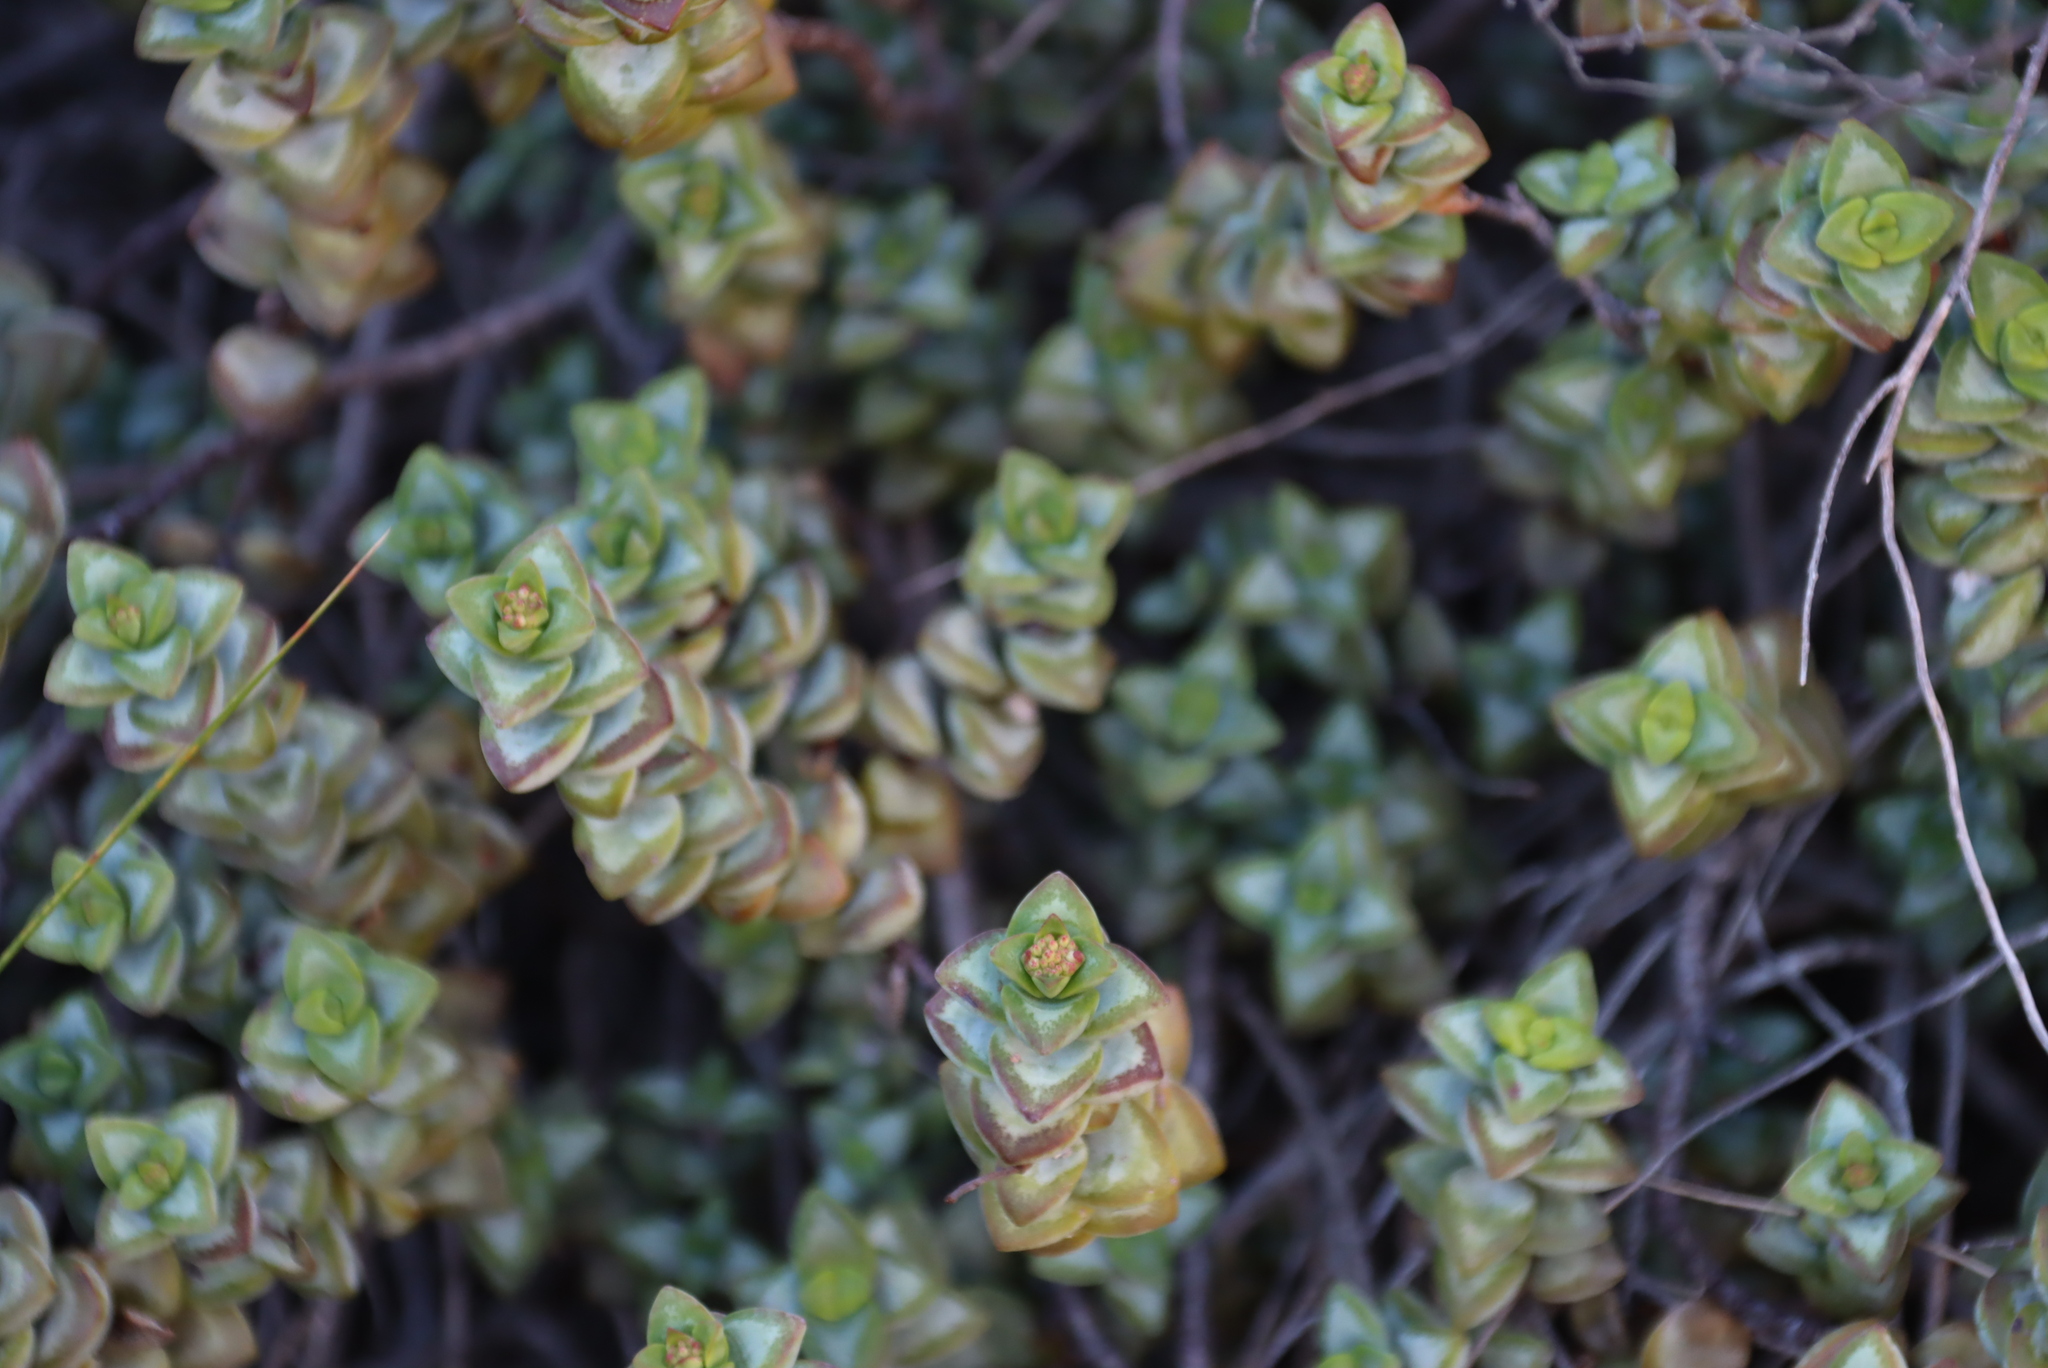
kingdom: Plantae
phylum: Tracheophyta
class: Magnoliopsida
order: Saxifragales
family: Crassulaceae
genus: Crassula
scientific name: Crassula rupestris
